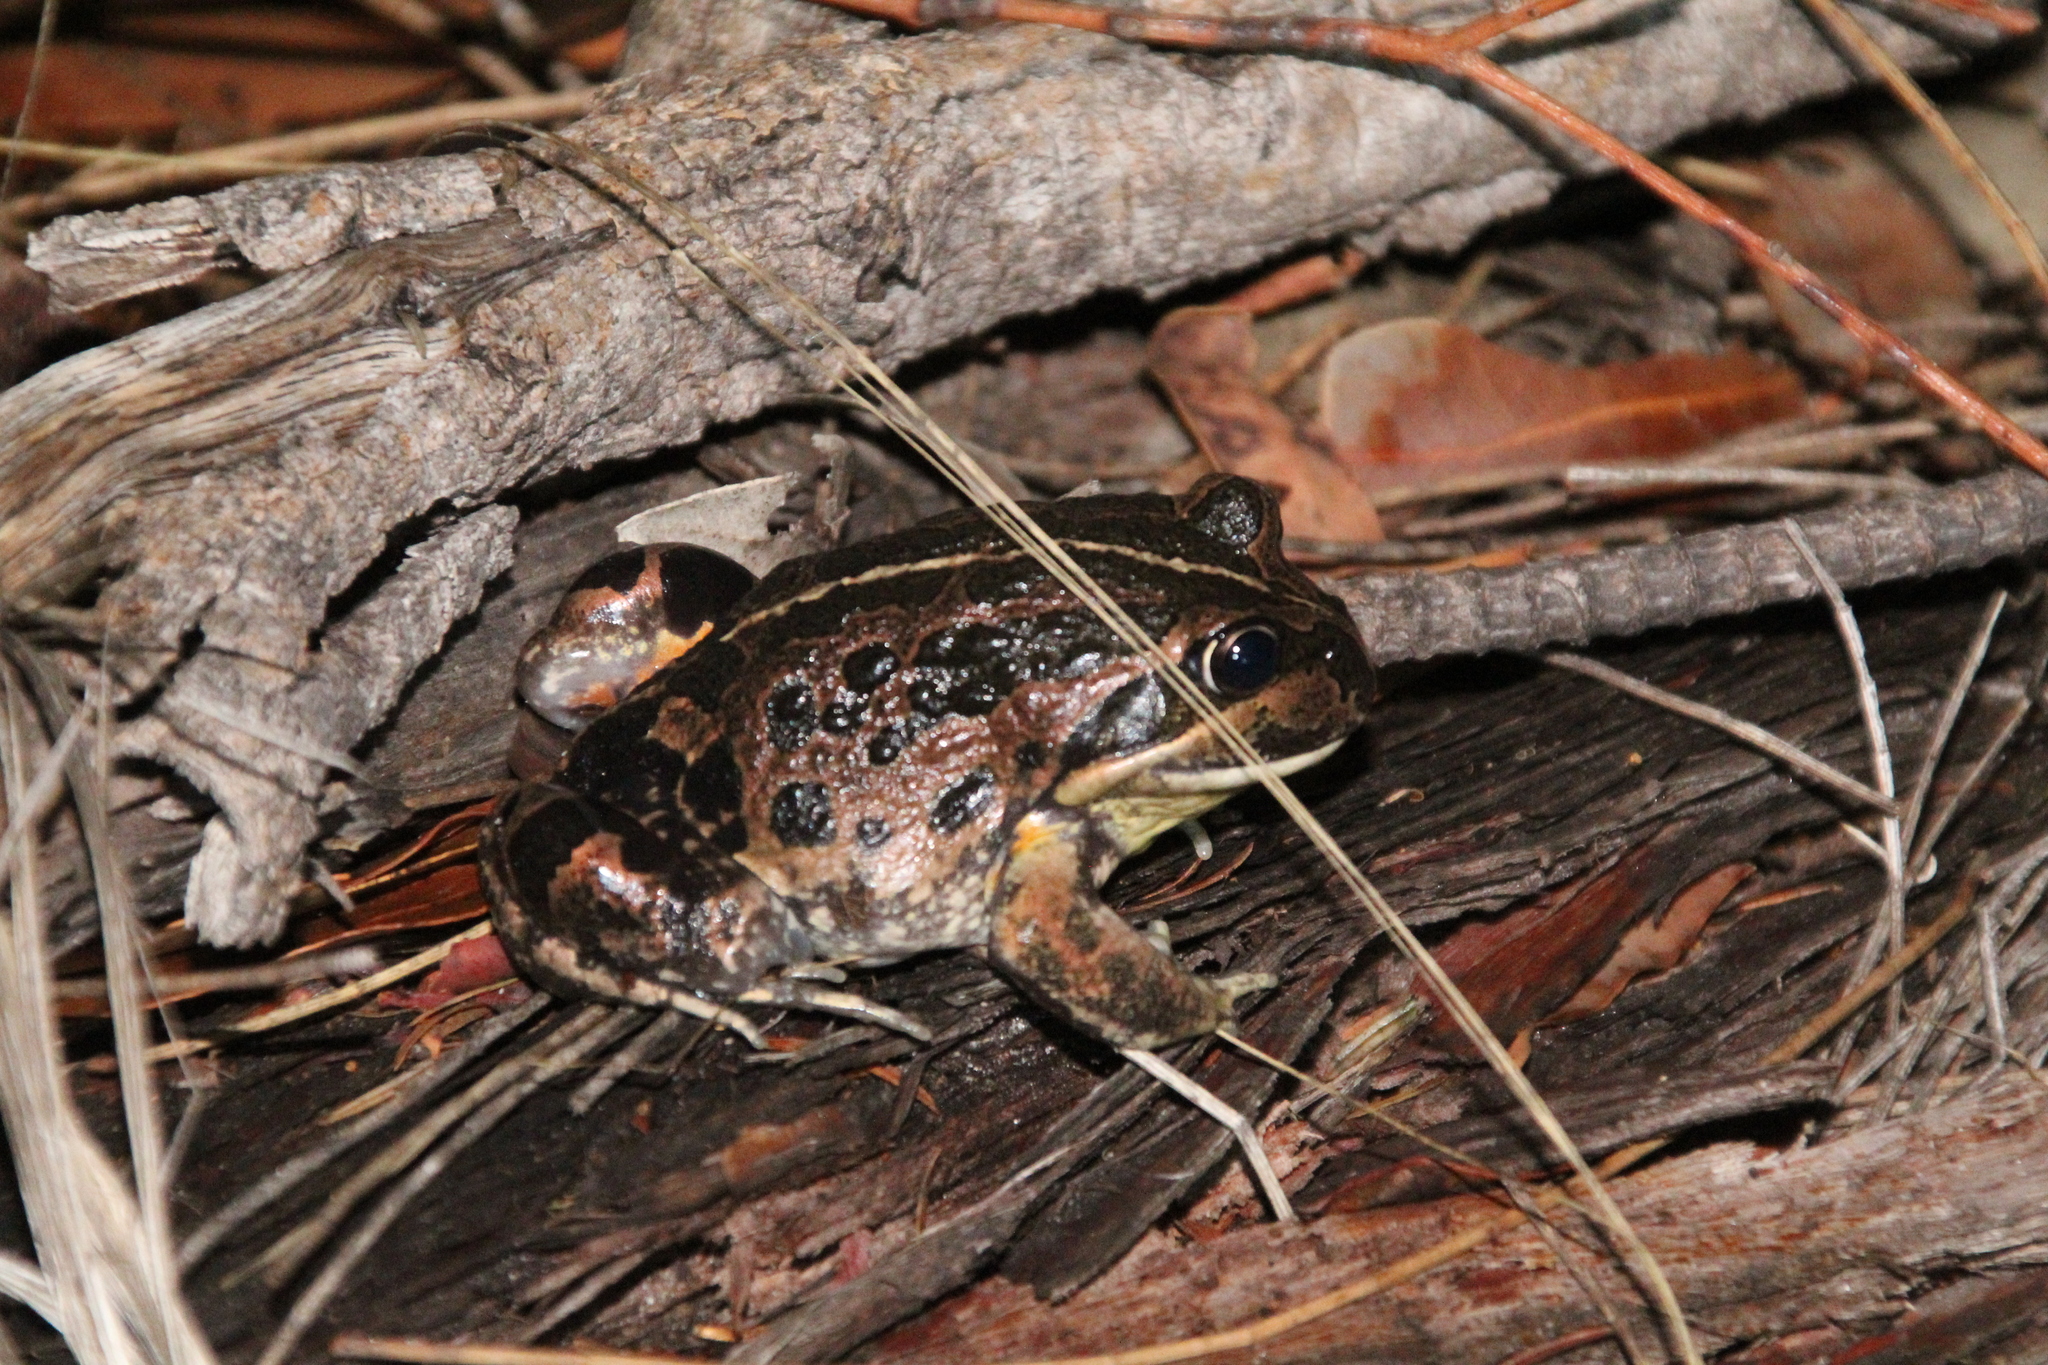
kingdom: Animalia
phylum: Chordata
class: Amphibia
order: Anura
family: Limnodynastidae
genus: Limnodynastes
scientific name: Limnodynastes dorsalis
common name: Banjo frog
